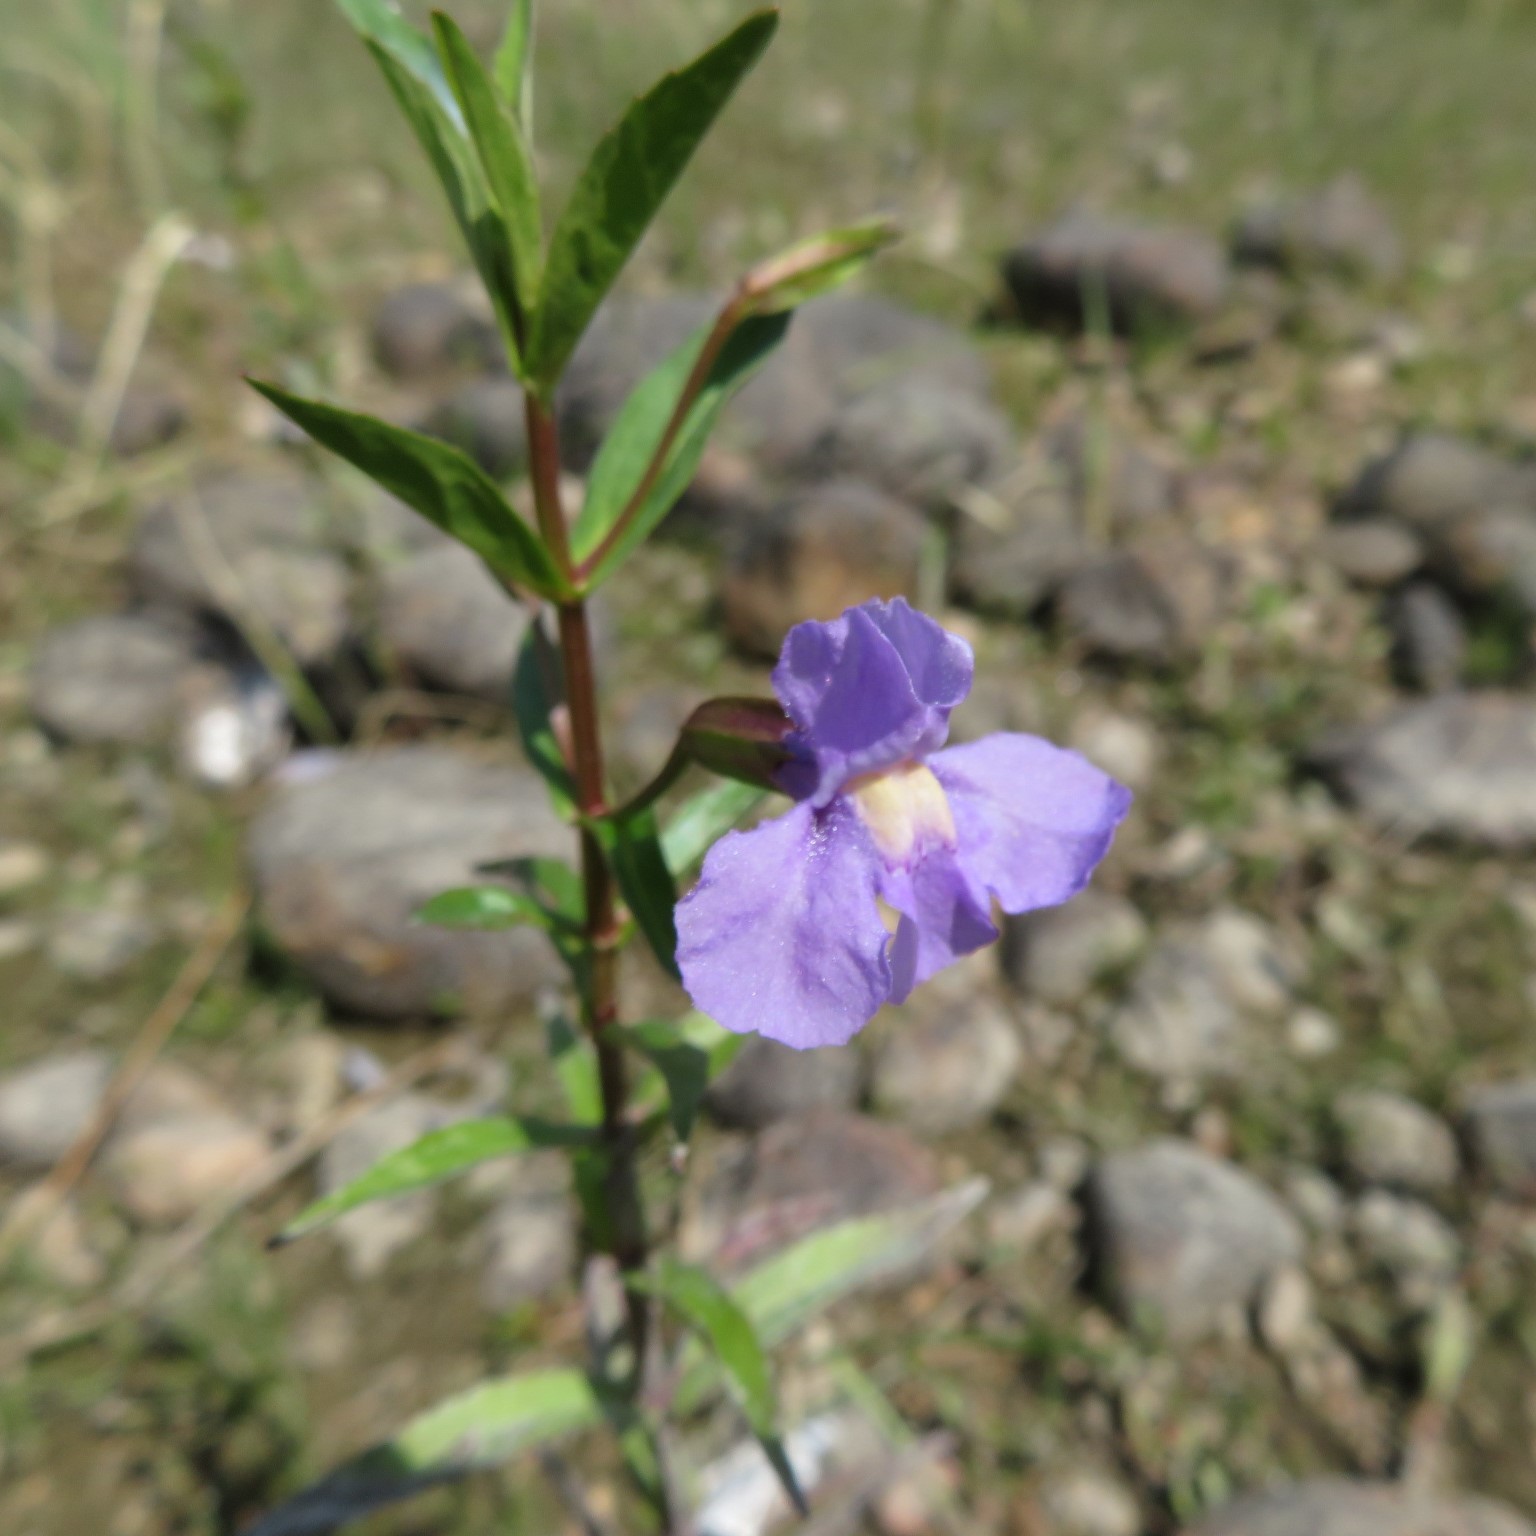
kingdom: Plantae
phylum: Tracheophyta
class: Magnoliopsida
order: Lamiales
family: Phrymaceae
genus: Mimulus
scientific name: Mimulus ringens
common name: Allegheny monkeyflower
